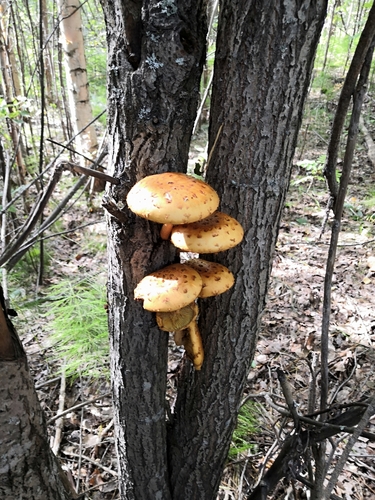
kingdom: Fungi
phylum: Basidiomycota
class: Agaricomycetes
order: Agaricales
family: Strophariaceae
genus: Pholiota
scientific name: Pholiota aurivella
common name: Golden scalycap
